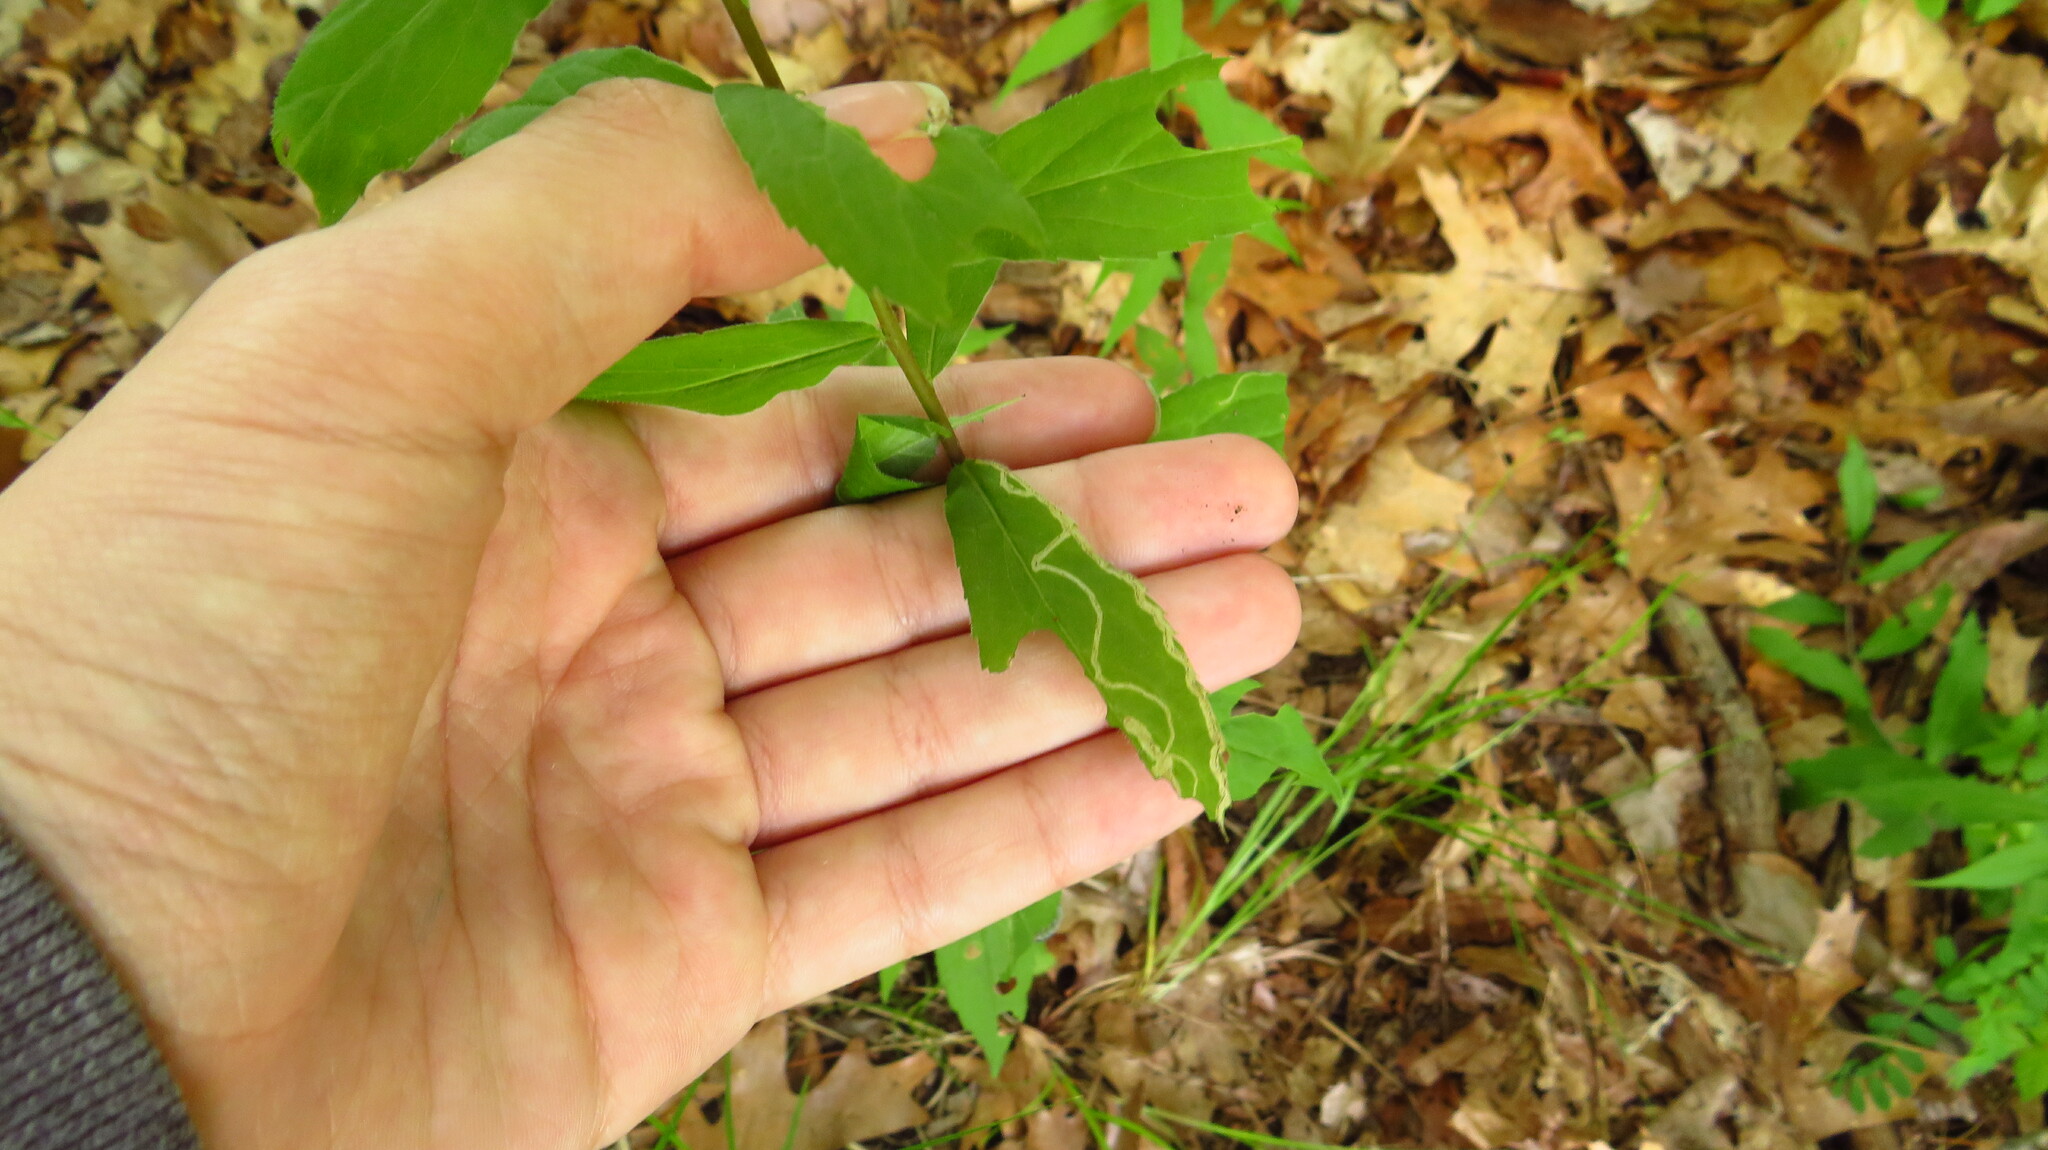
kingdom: Animalia
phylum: Arthropoda
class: Insecta
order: Diptera
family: Agromyzidae
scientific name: Agromyzidae
